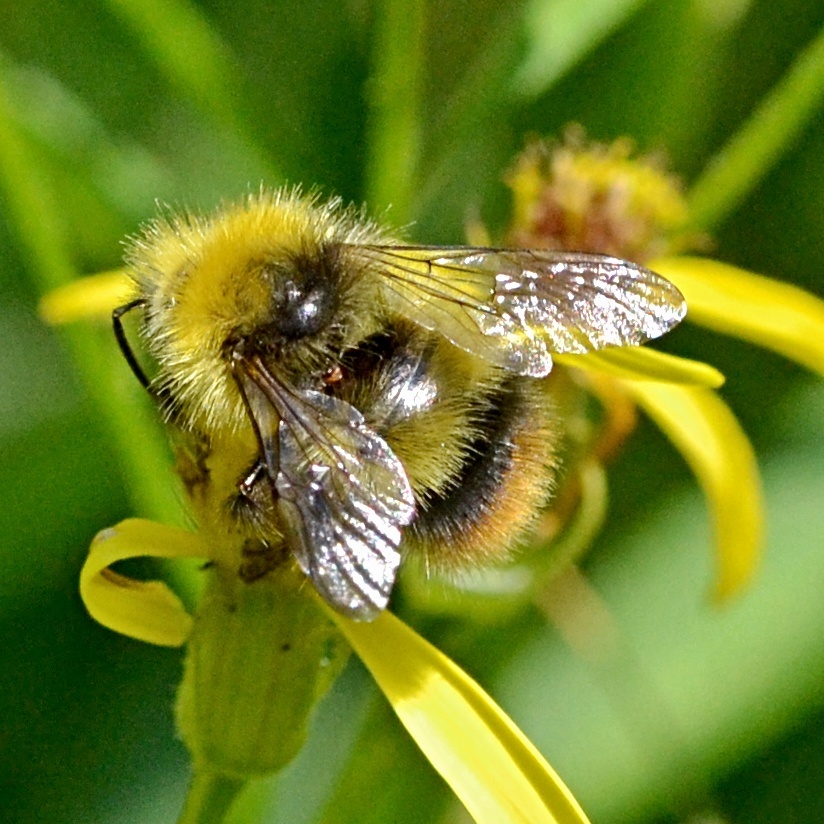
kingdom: Animalia
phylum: Arthropoda
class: Insecta
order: Hymenoptera
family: Apidae
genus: Bombus
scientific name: Bombus pratorum
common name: Early humble-bee
